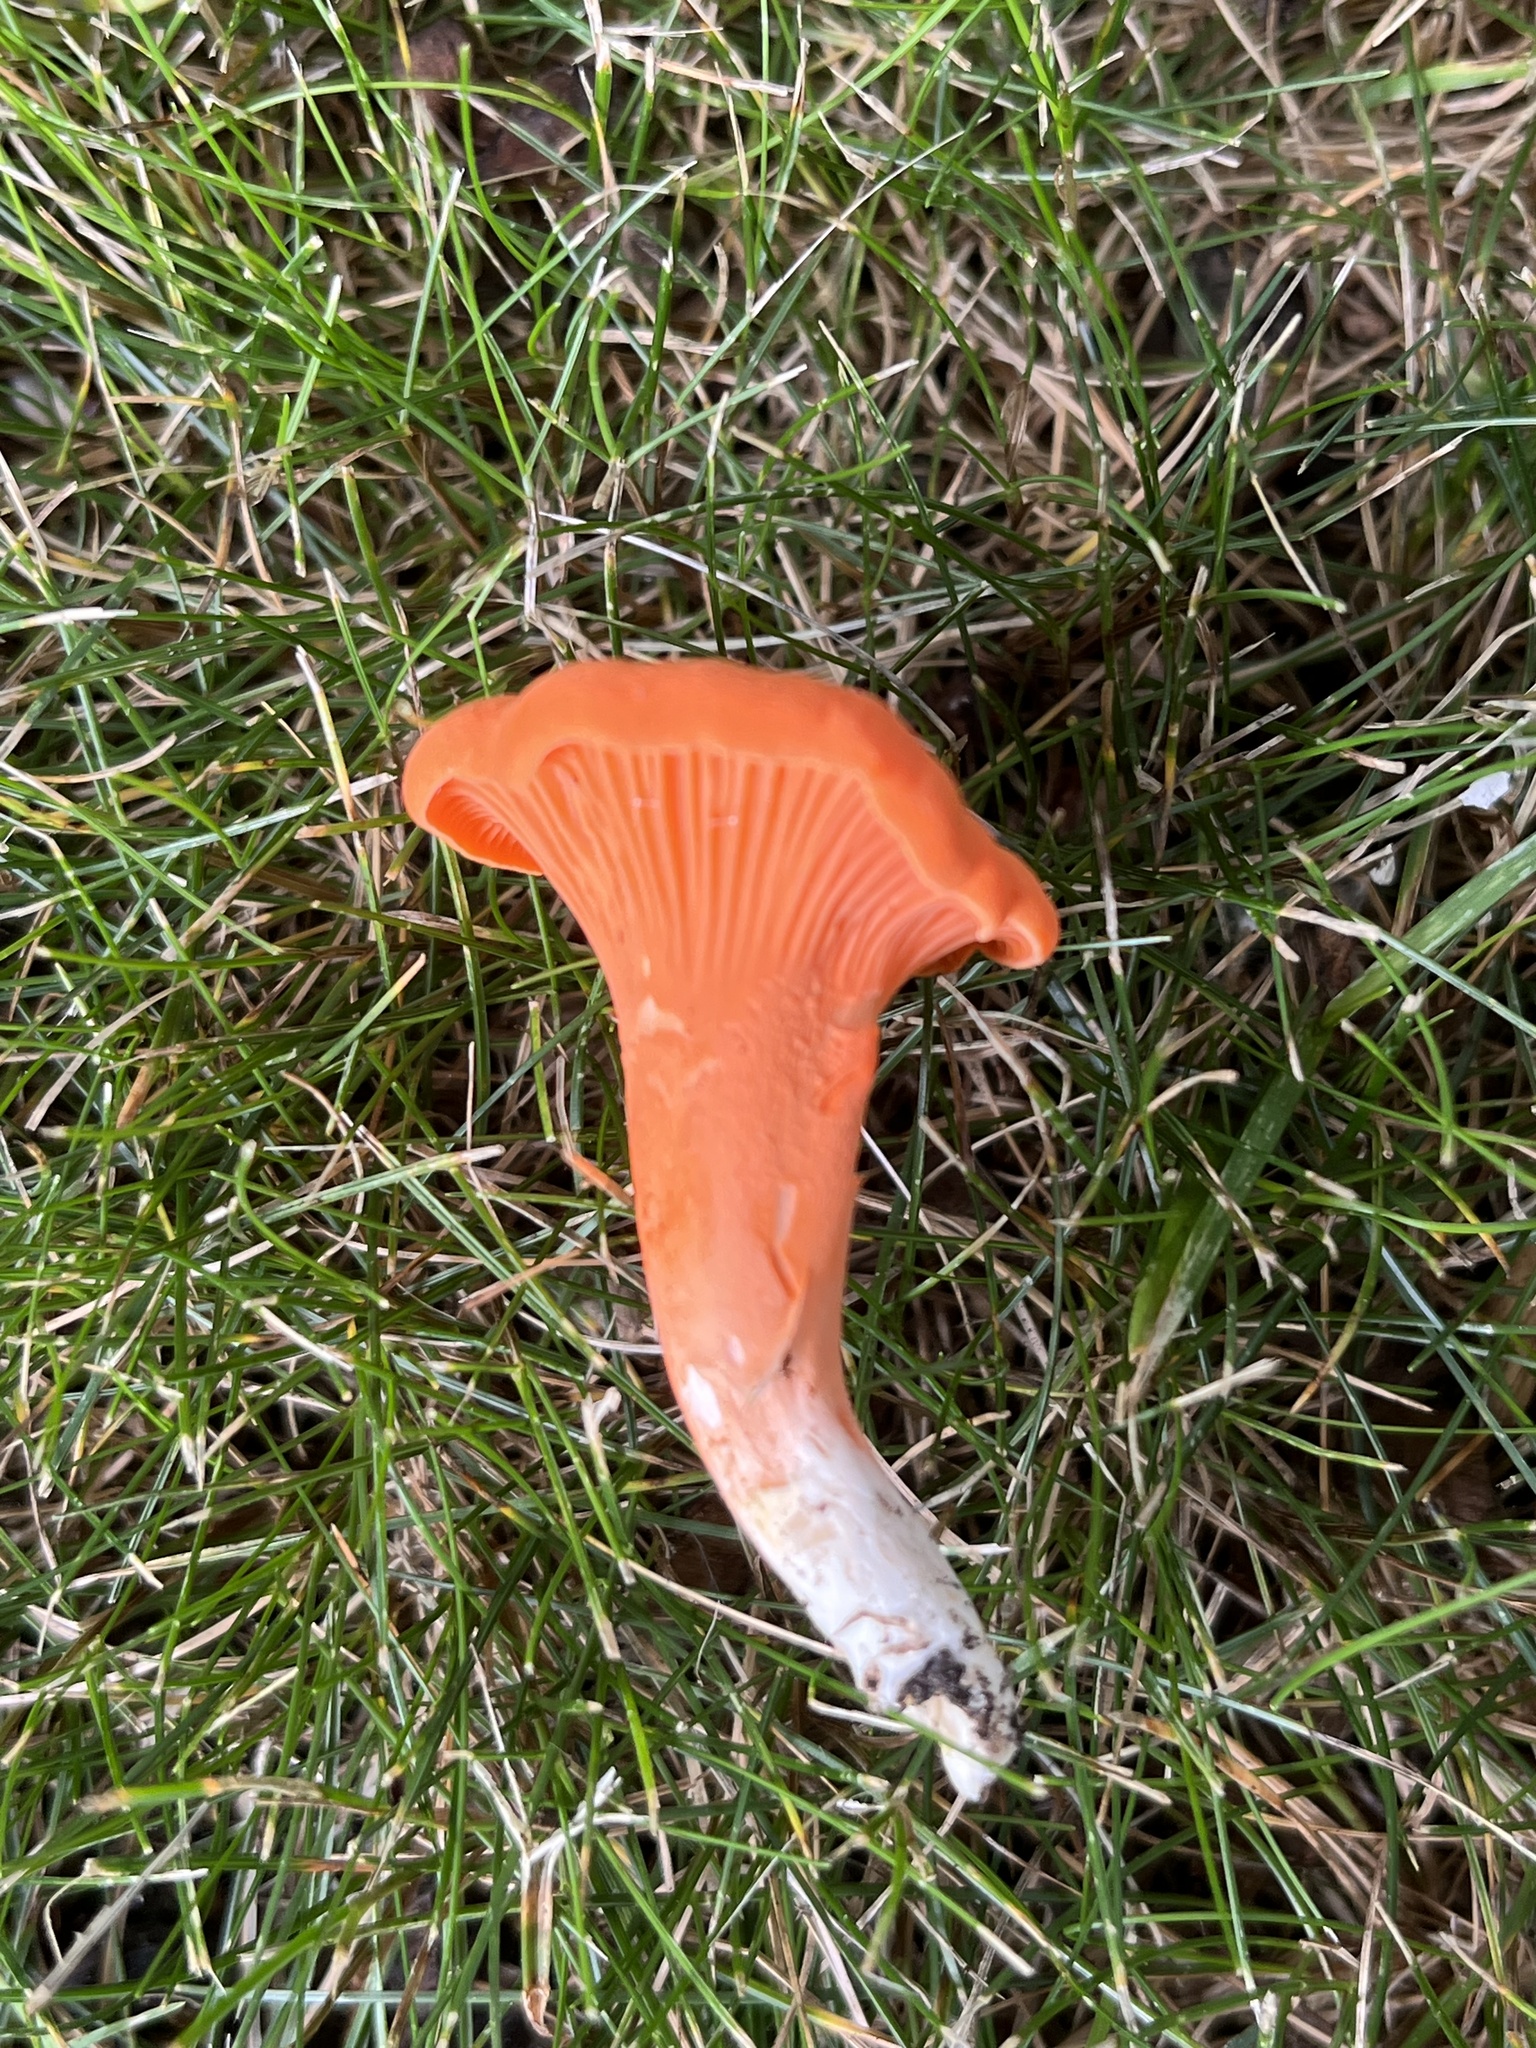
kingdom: Fungi
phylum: Basidiomycota
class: Agaricomycetes
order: Cantharellales
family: Hydnaceae
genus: Cantharellus
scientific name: Cantharellus cinnabarinus
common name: Cinnabar chanterelle
